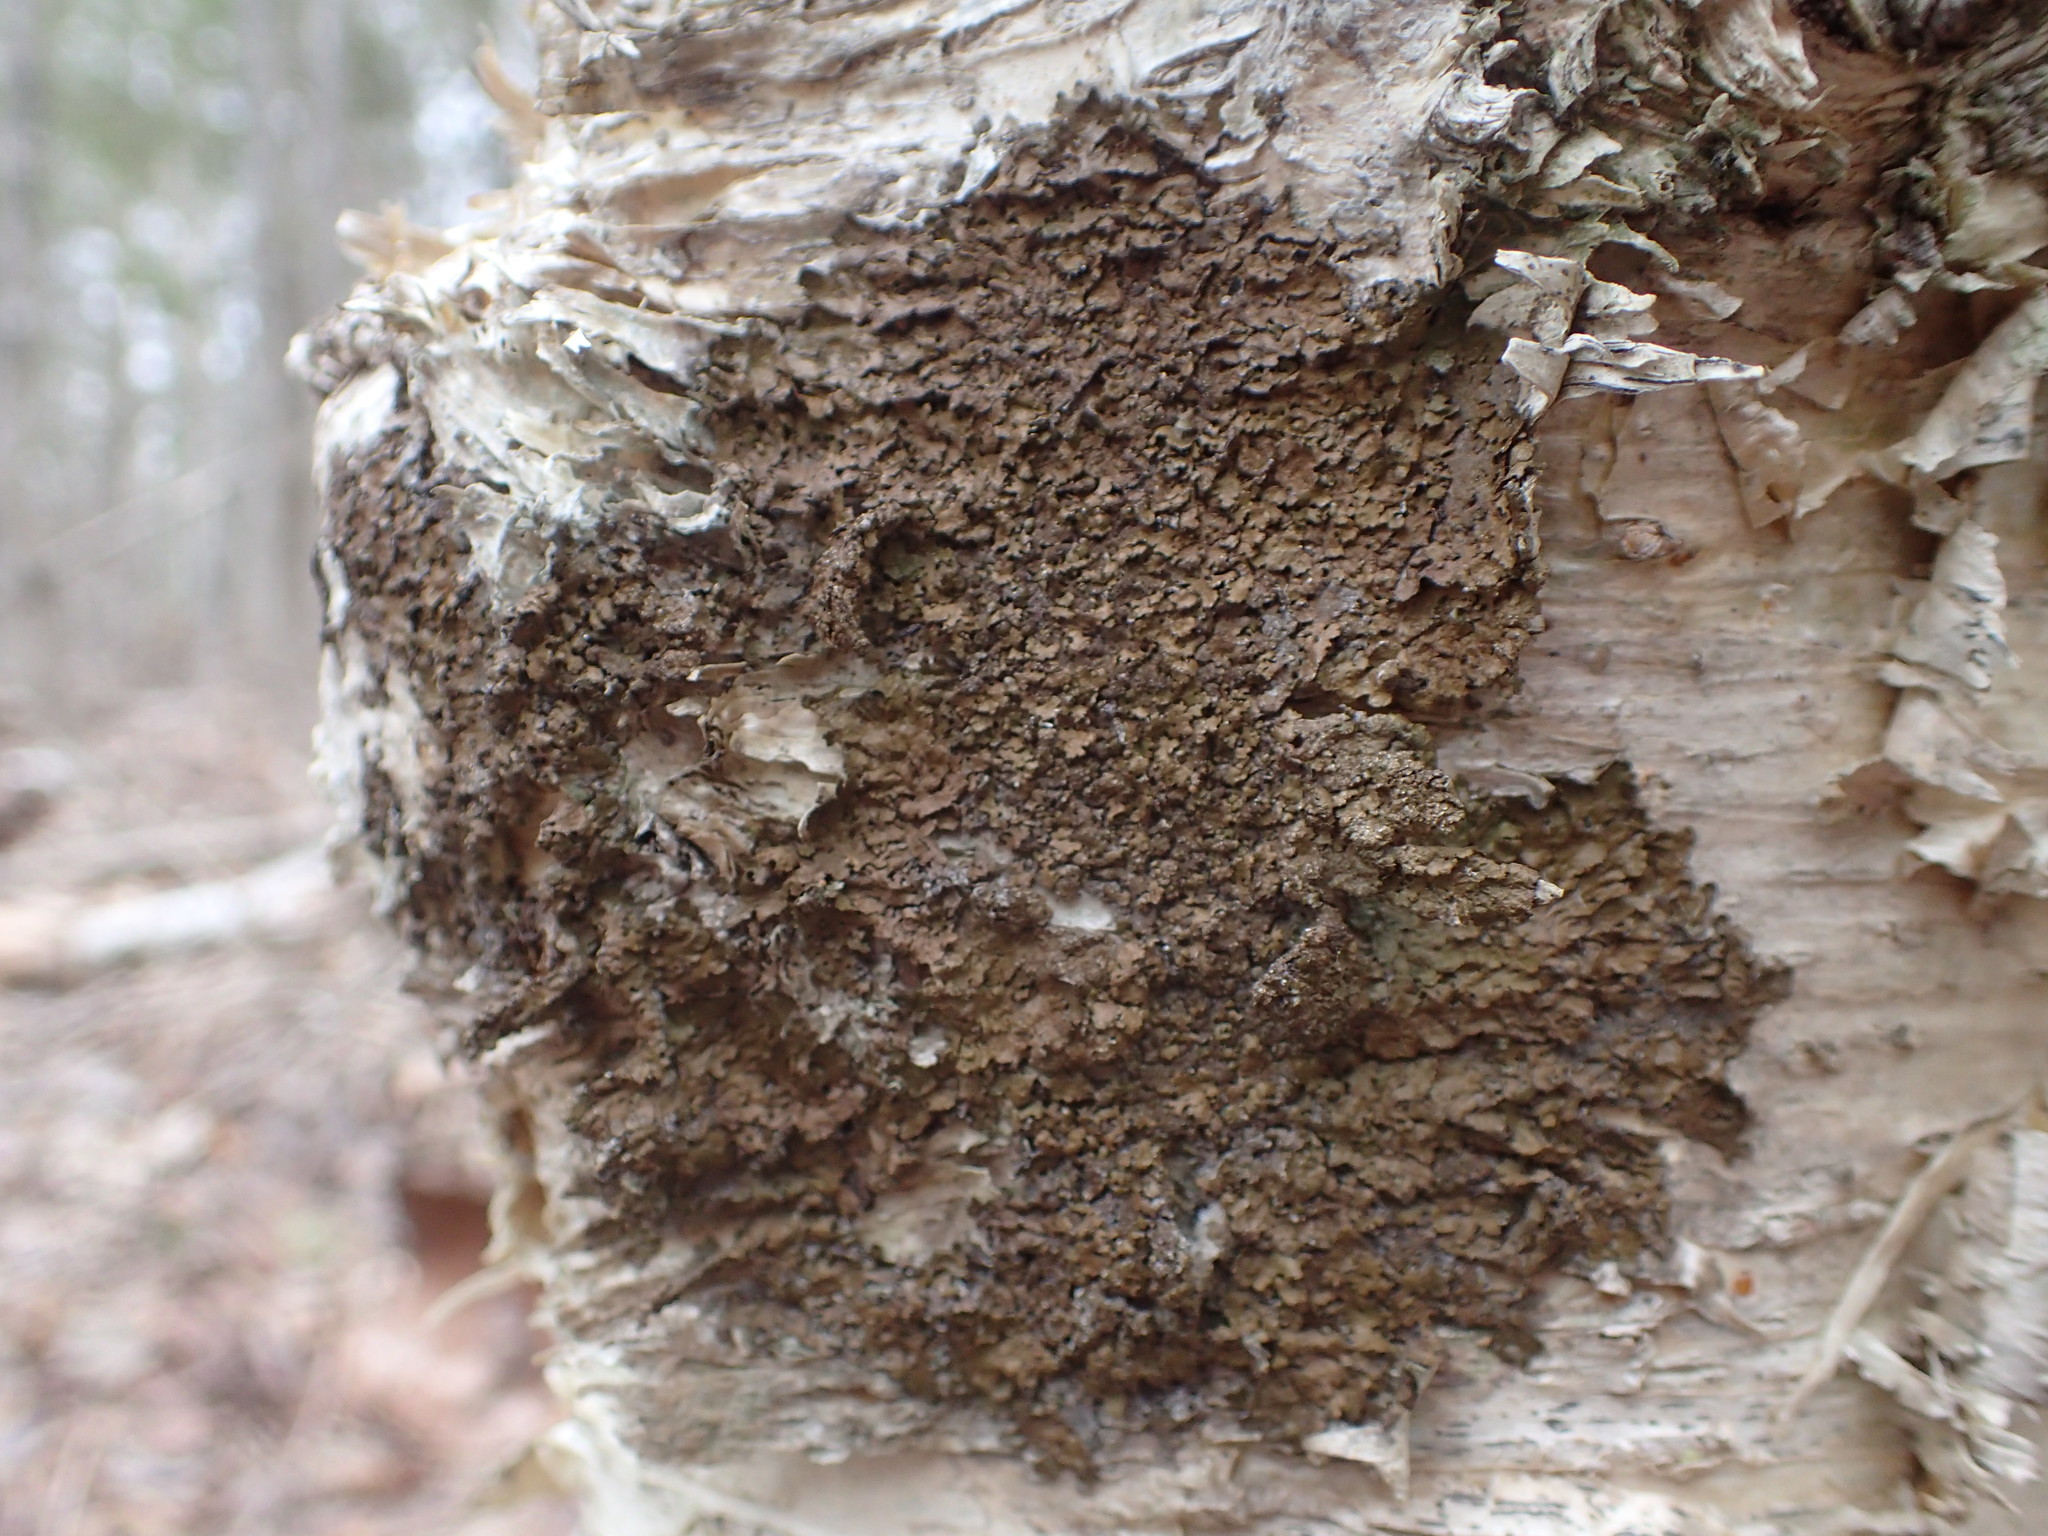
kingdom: Fungi
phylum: Ascomycota
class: Lecanoromycetes
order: Lecanorales
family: Parmeliaceae
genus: Melanelixia
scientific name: Melanelixia subaurifera
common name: Abraded camouflage lichen
